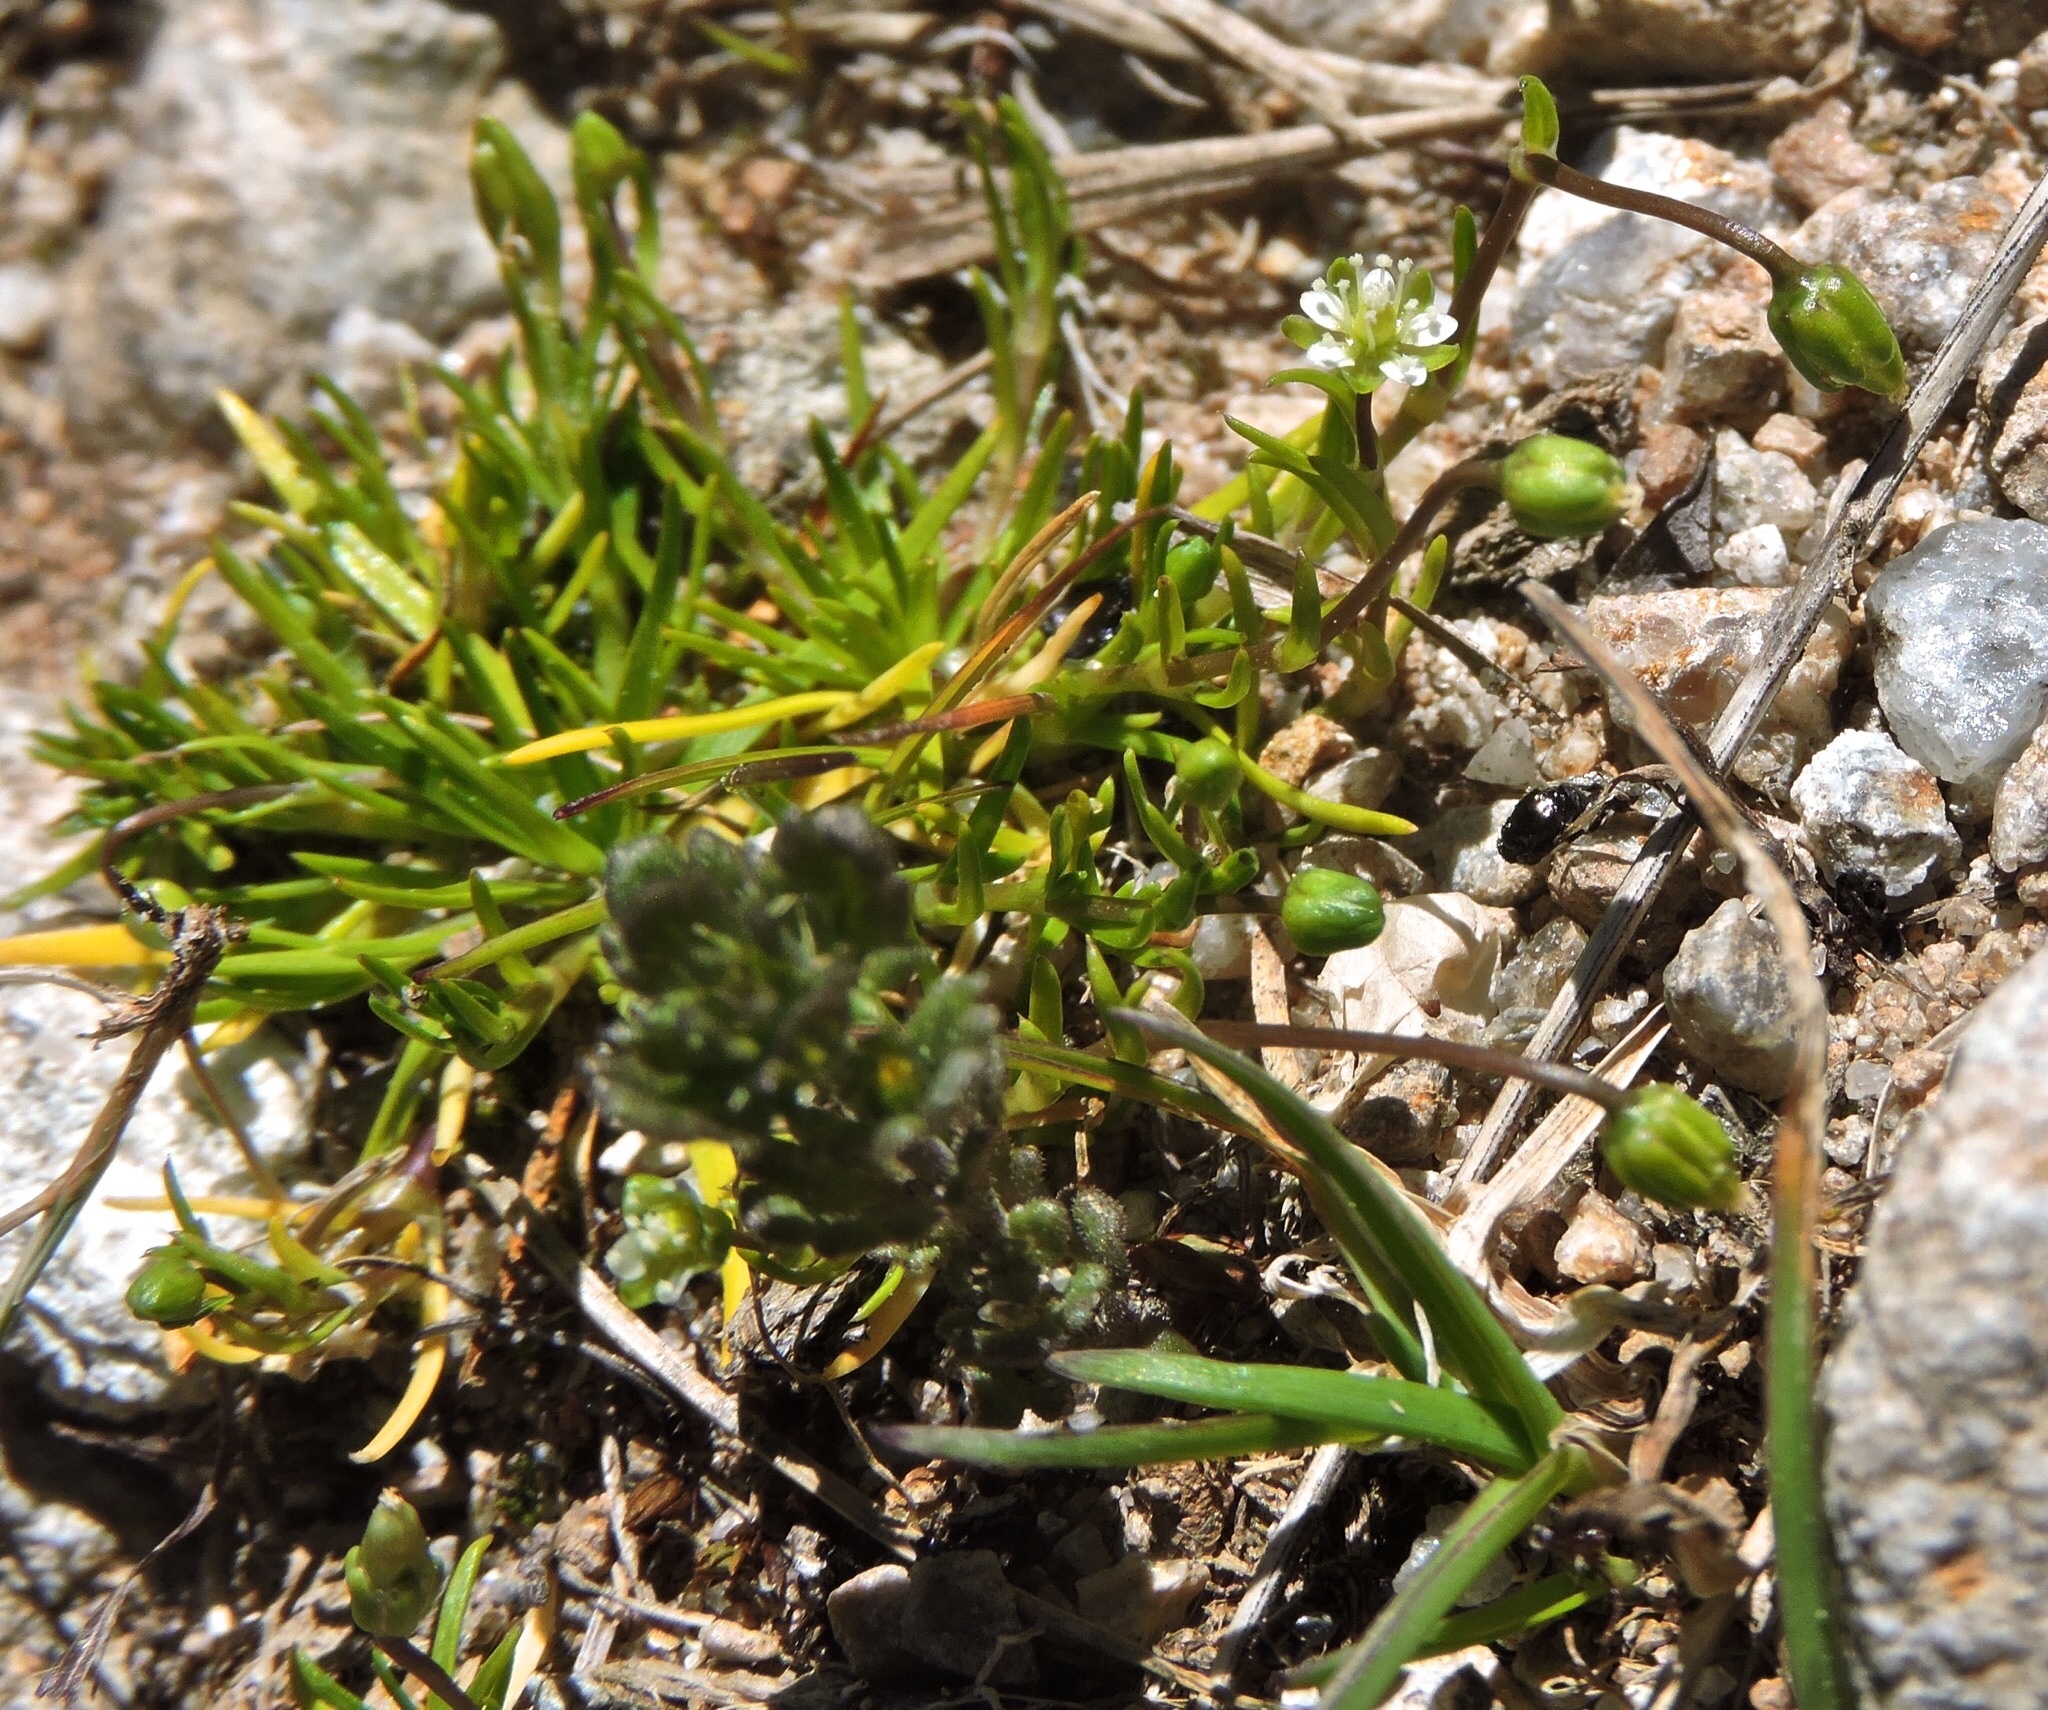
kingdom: Plantae
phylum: Tracheophyta
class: Magnoliopsida
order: Caryophyllales
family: Caryophyllaceae
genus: Sagina
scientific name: Sagina saginoides
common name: Alpine pearlwort
